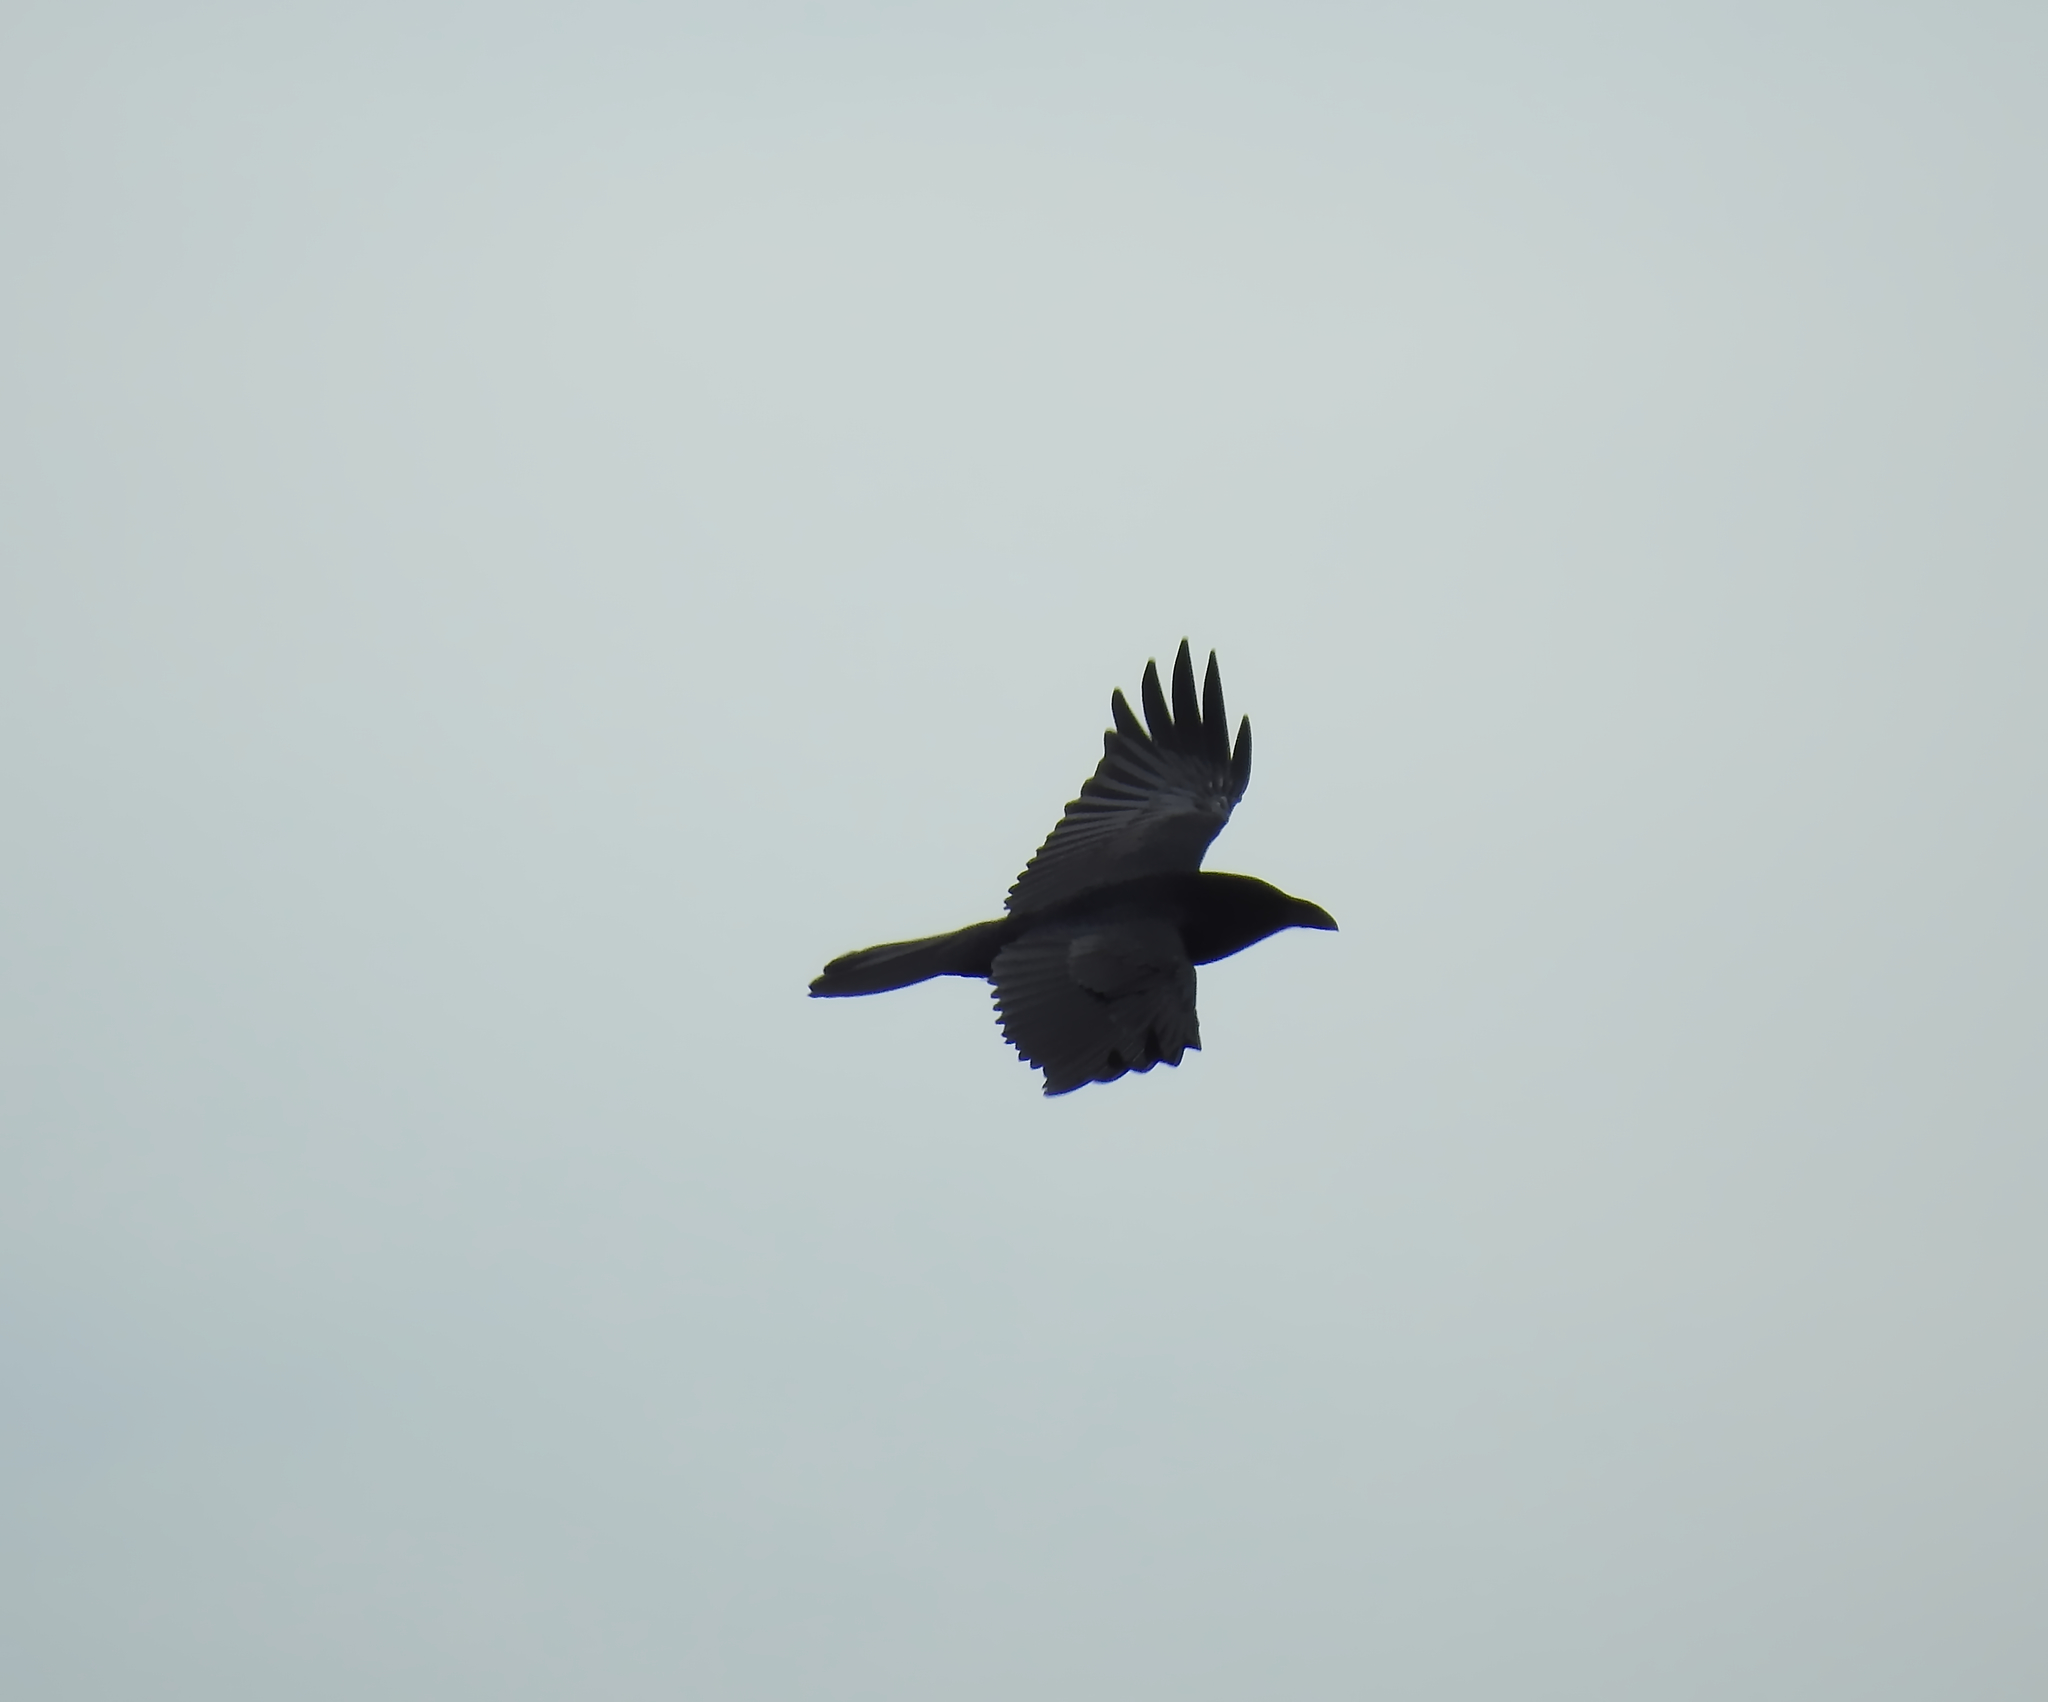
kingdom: Animalia
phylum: Chordata
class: Aves
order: Passeriformes
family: Corvidae
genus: Corvus
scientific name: Corvus corax
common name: Common raven
